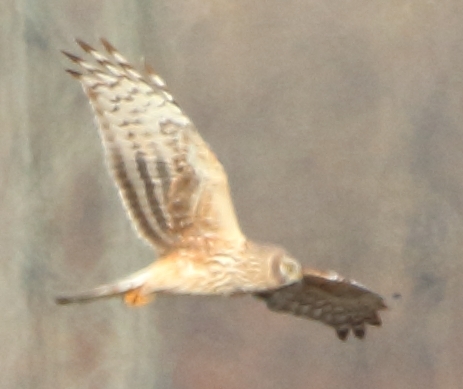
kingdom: Animalia
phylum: Chordata
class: Aves
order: Accipitriformes
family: Accipitridae
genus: Circus
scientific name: Circus cyaneus
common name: Hen harrier
